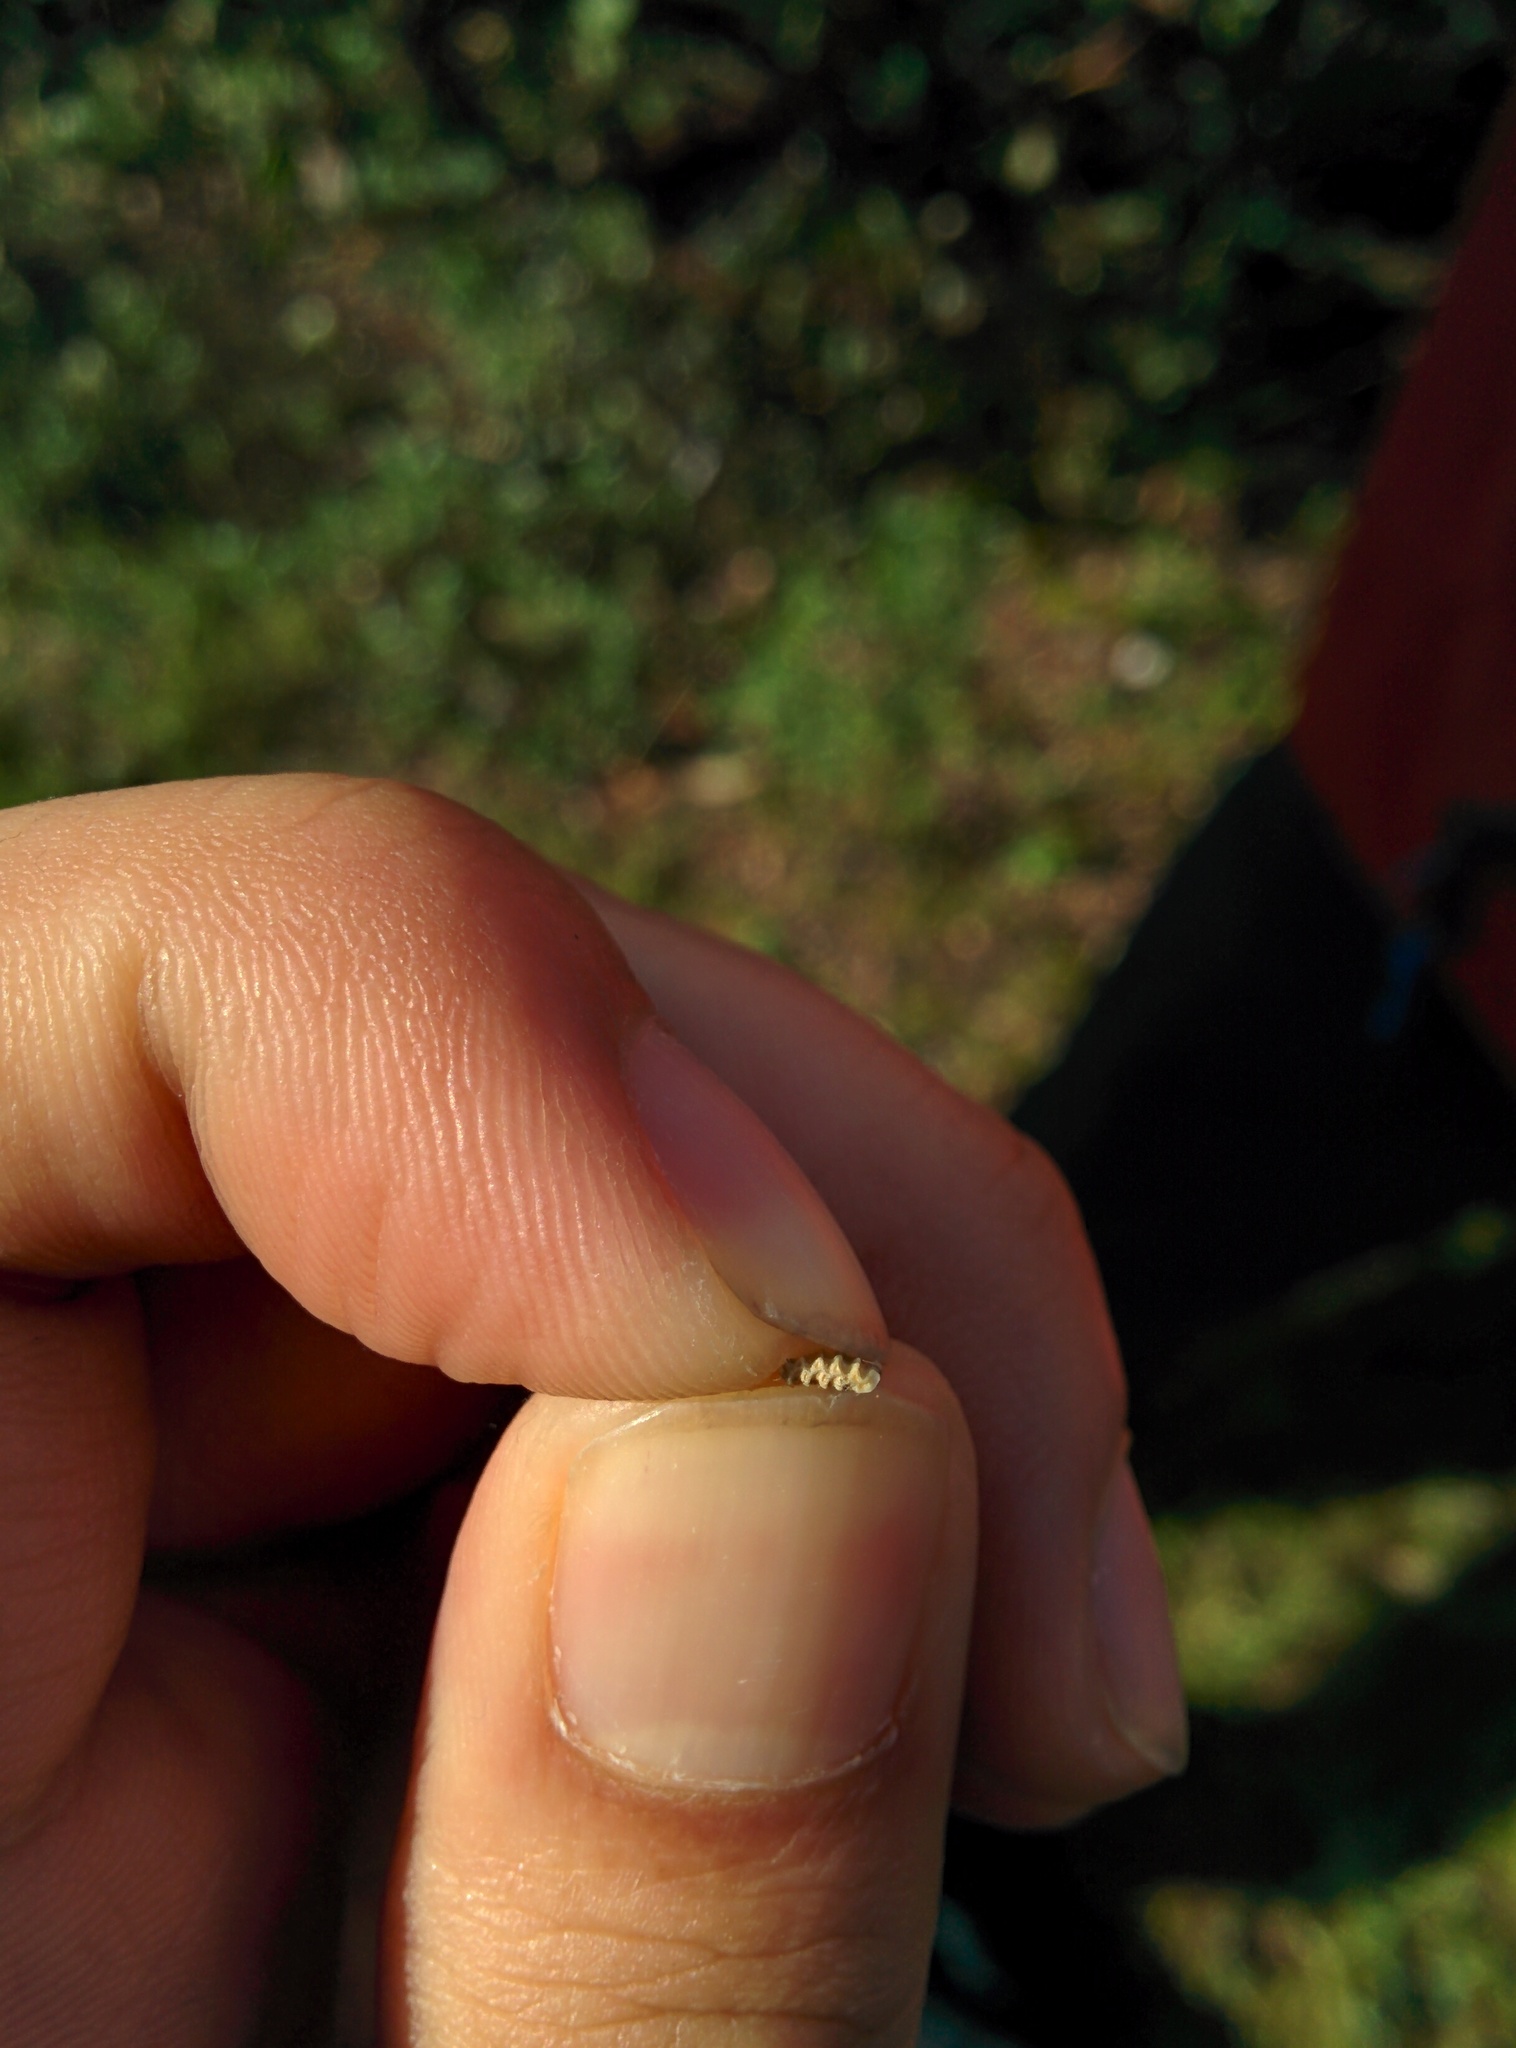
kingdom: Animalia
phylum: Chordata
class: Mammalia
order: Rodentia
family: Cricetidae
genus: Microtus
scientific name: Microtus californicus
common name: California vole
